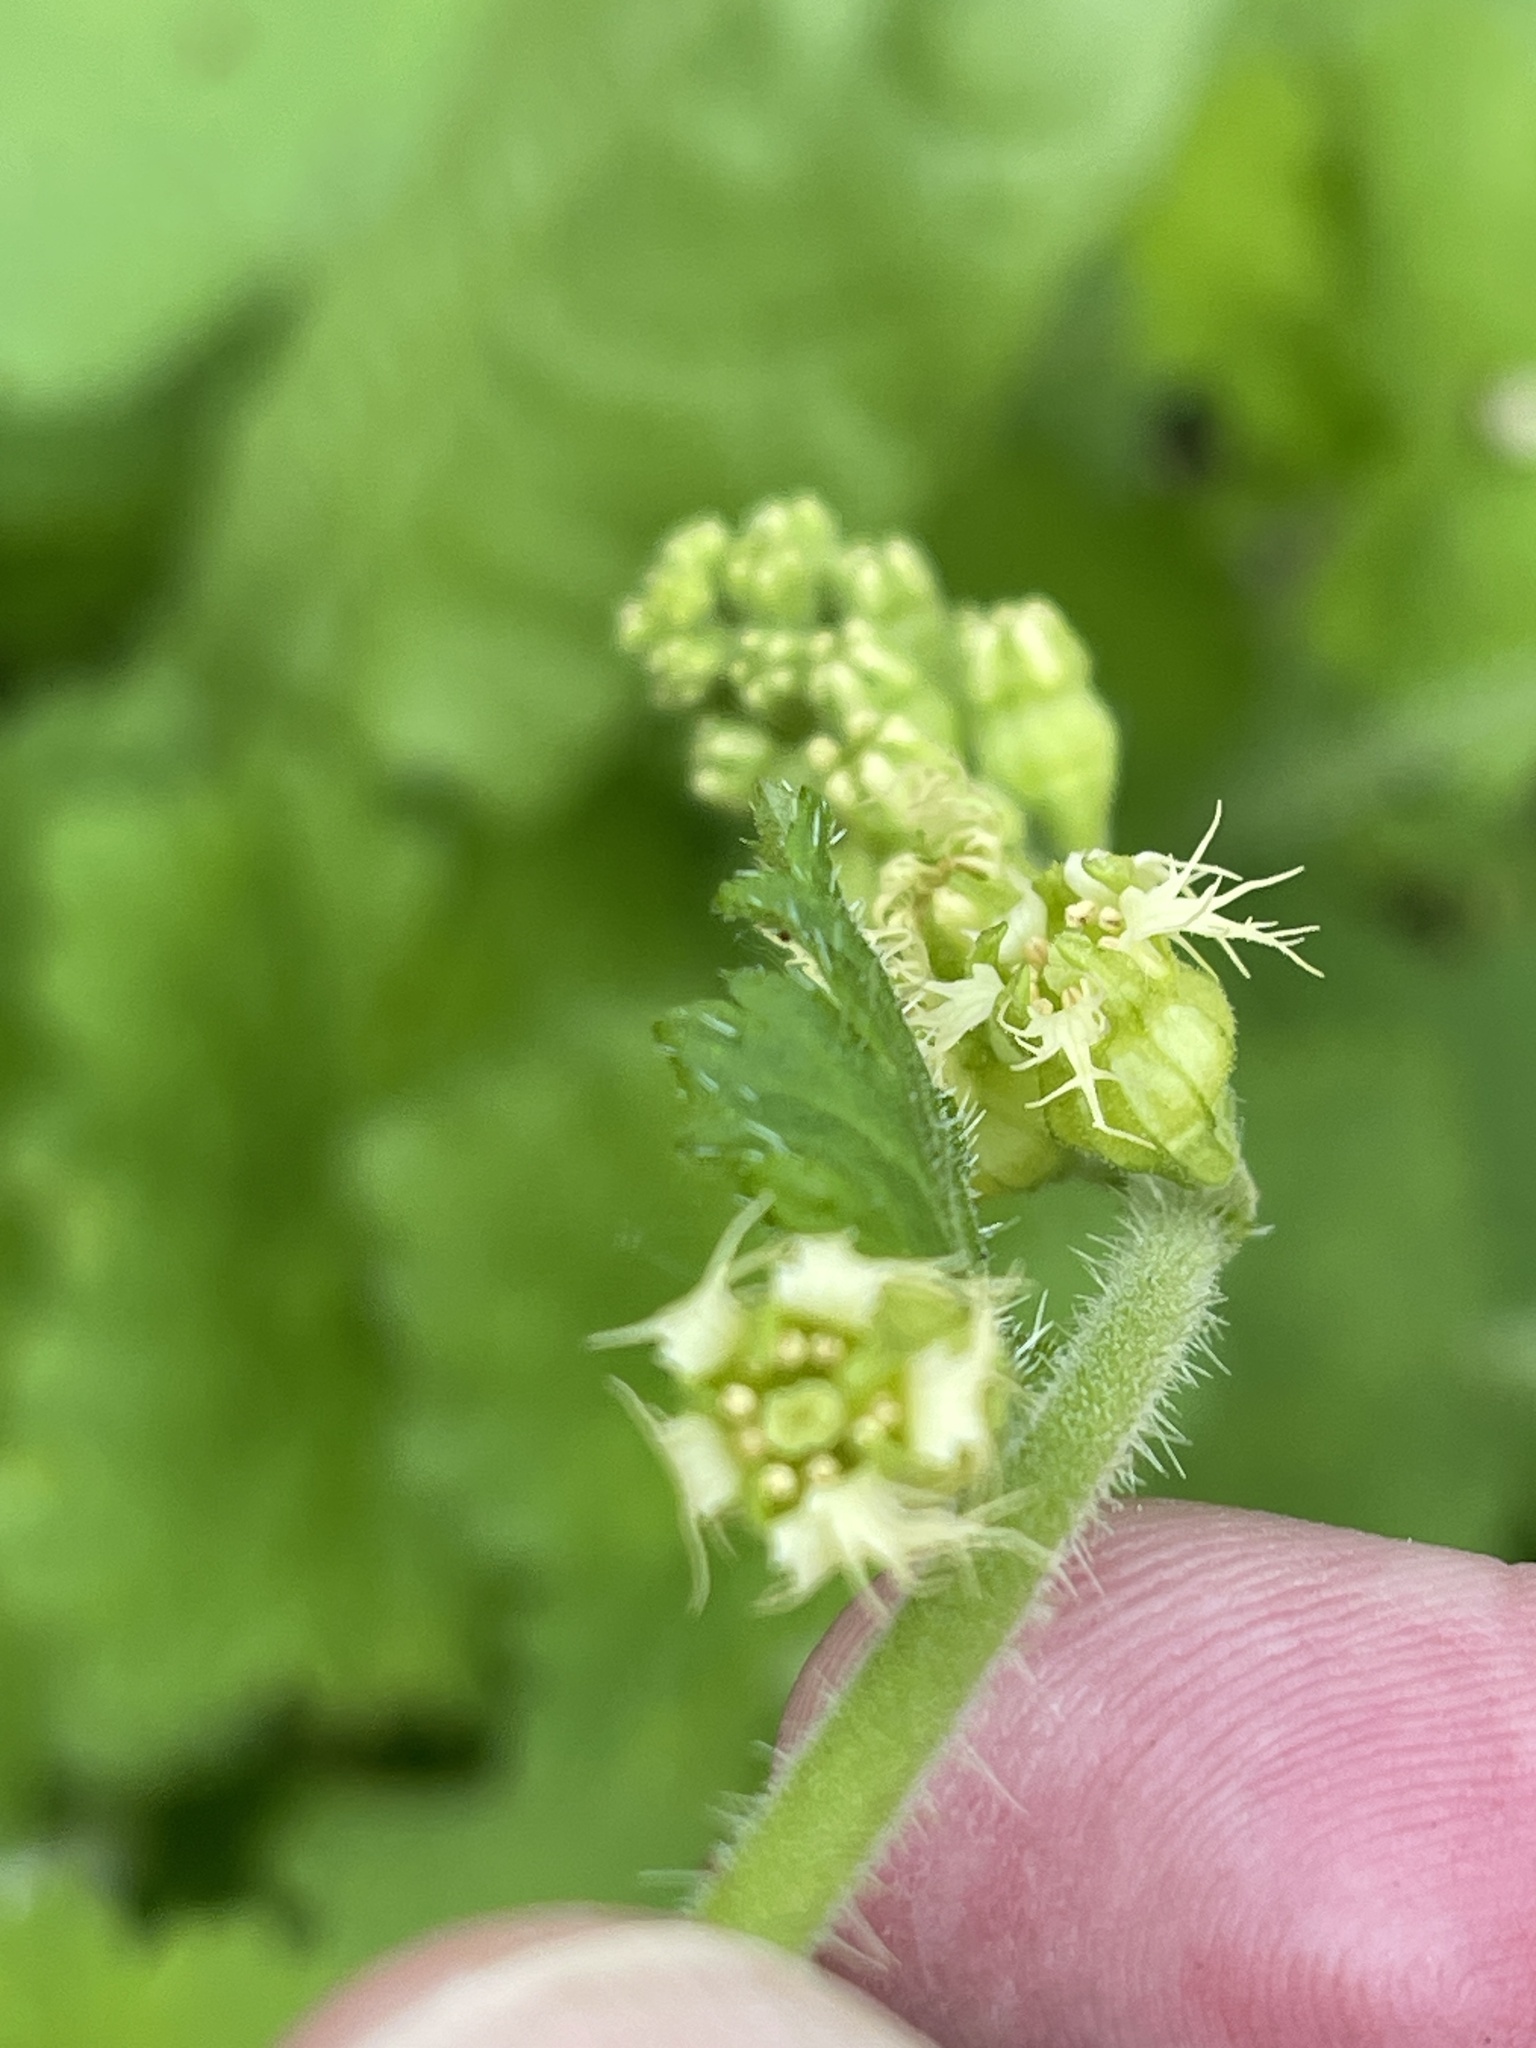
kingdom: Plantae
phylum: Tracheophyta
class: Magnoliopsida
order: Saxifragales
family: Saxifragaceae
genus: Tellima
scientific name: Tellima grandiflora
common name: Fringecups
